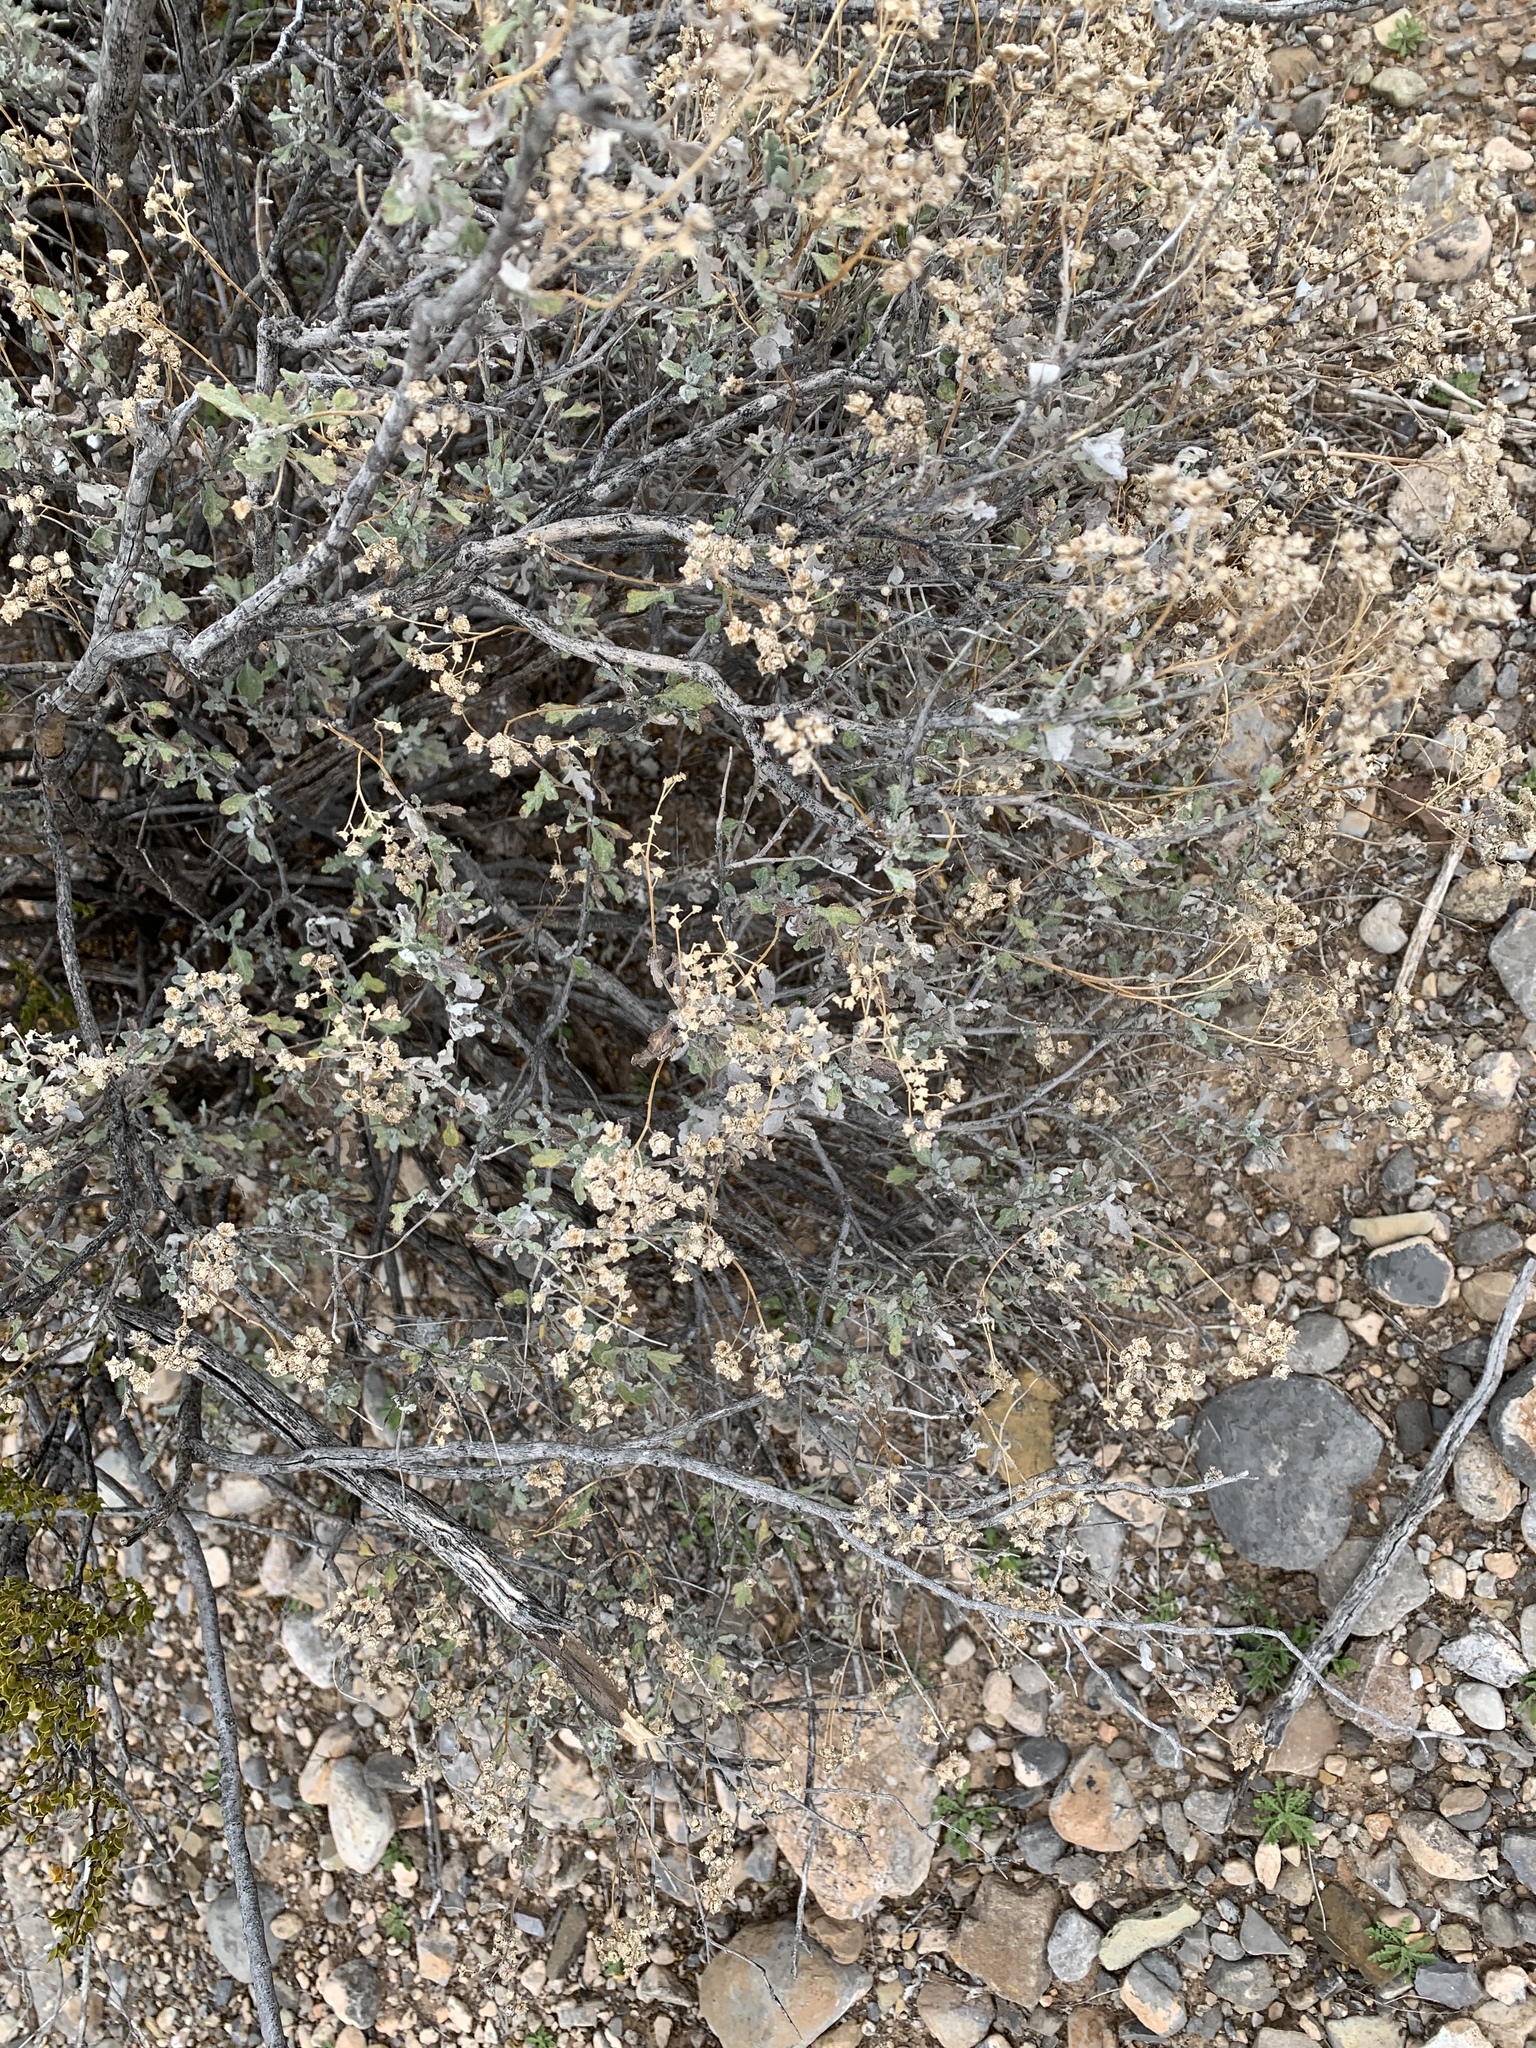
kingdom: Plantae
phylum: Tracheophyta
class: Magnoliopsida
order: Asterales
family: Asteraceae
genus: Parthenium
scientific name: Parthenium incanum
